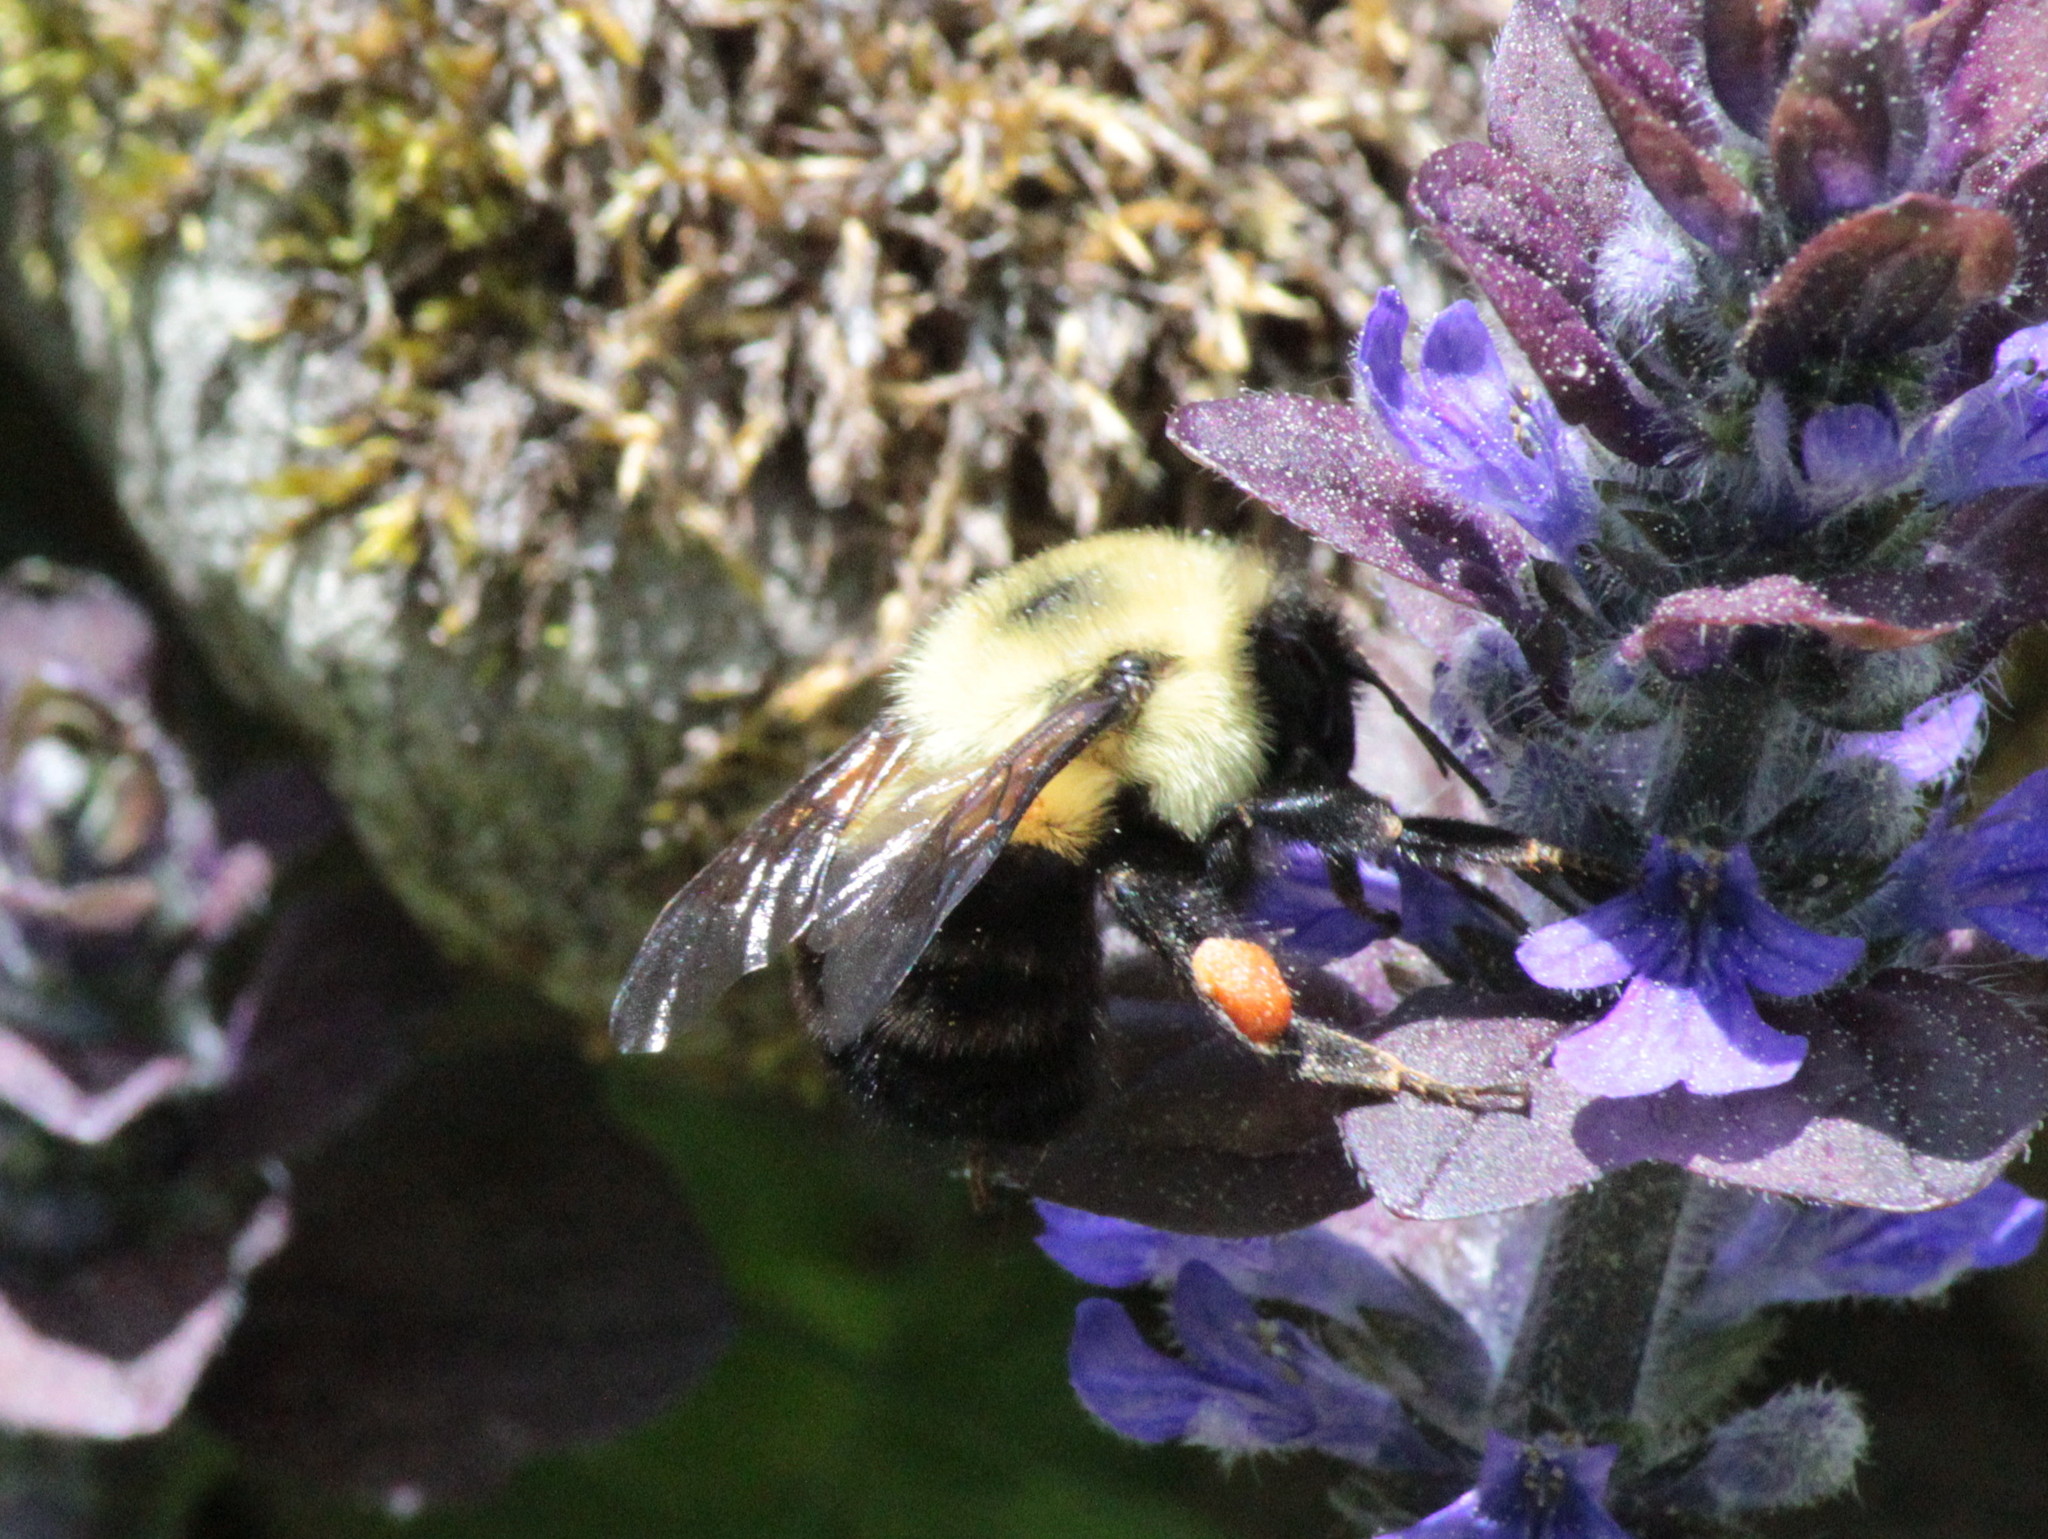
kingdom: Animalia
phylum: Arthropoda
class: Insecta
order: Hymenoptera
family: Apidae
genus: Bombus
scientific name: Bombus bimaculatus
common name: Two-spotted bumble bee
